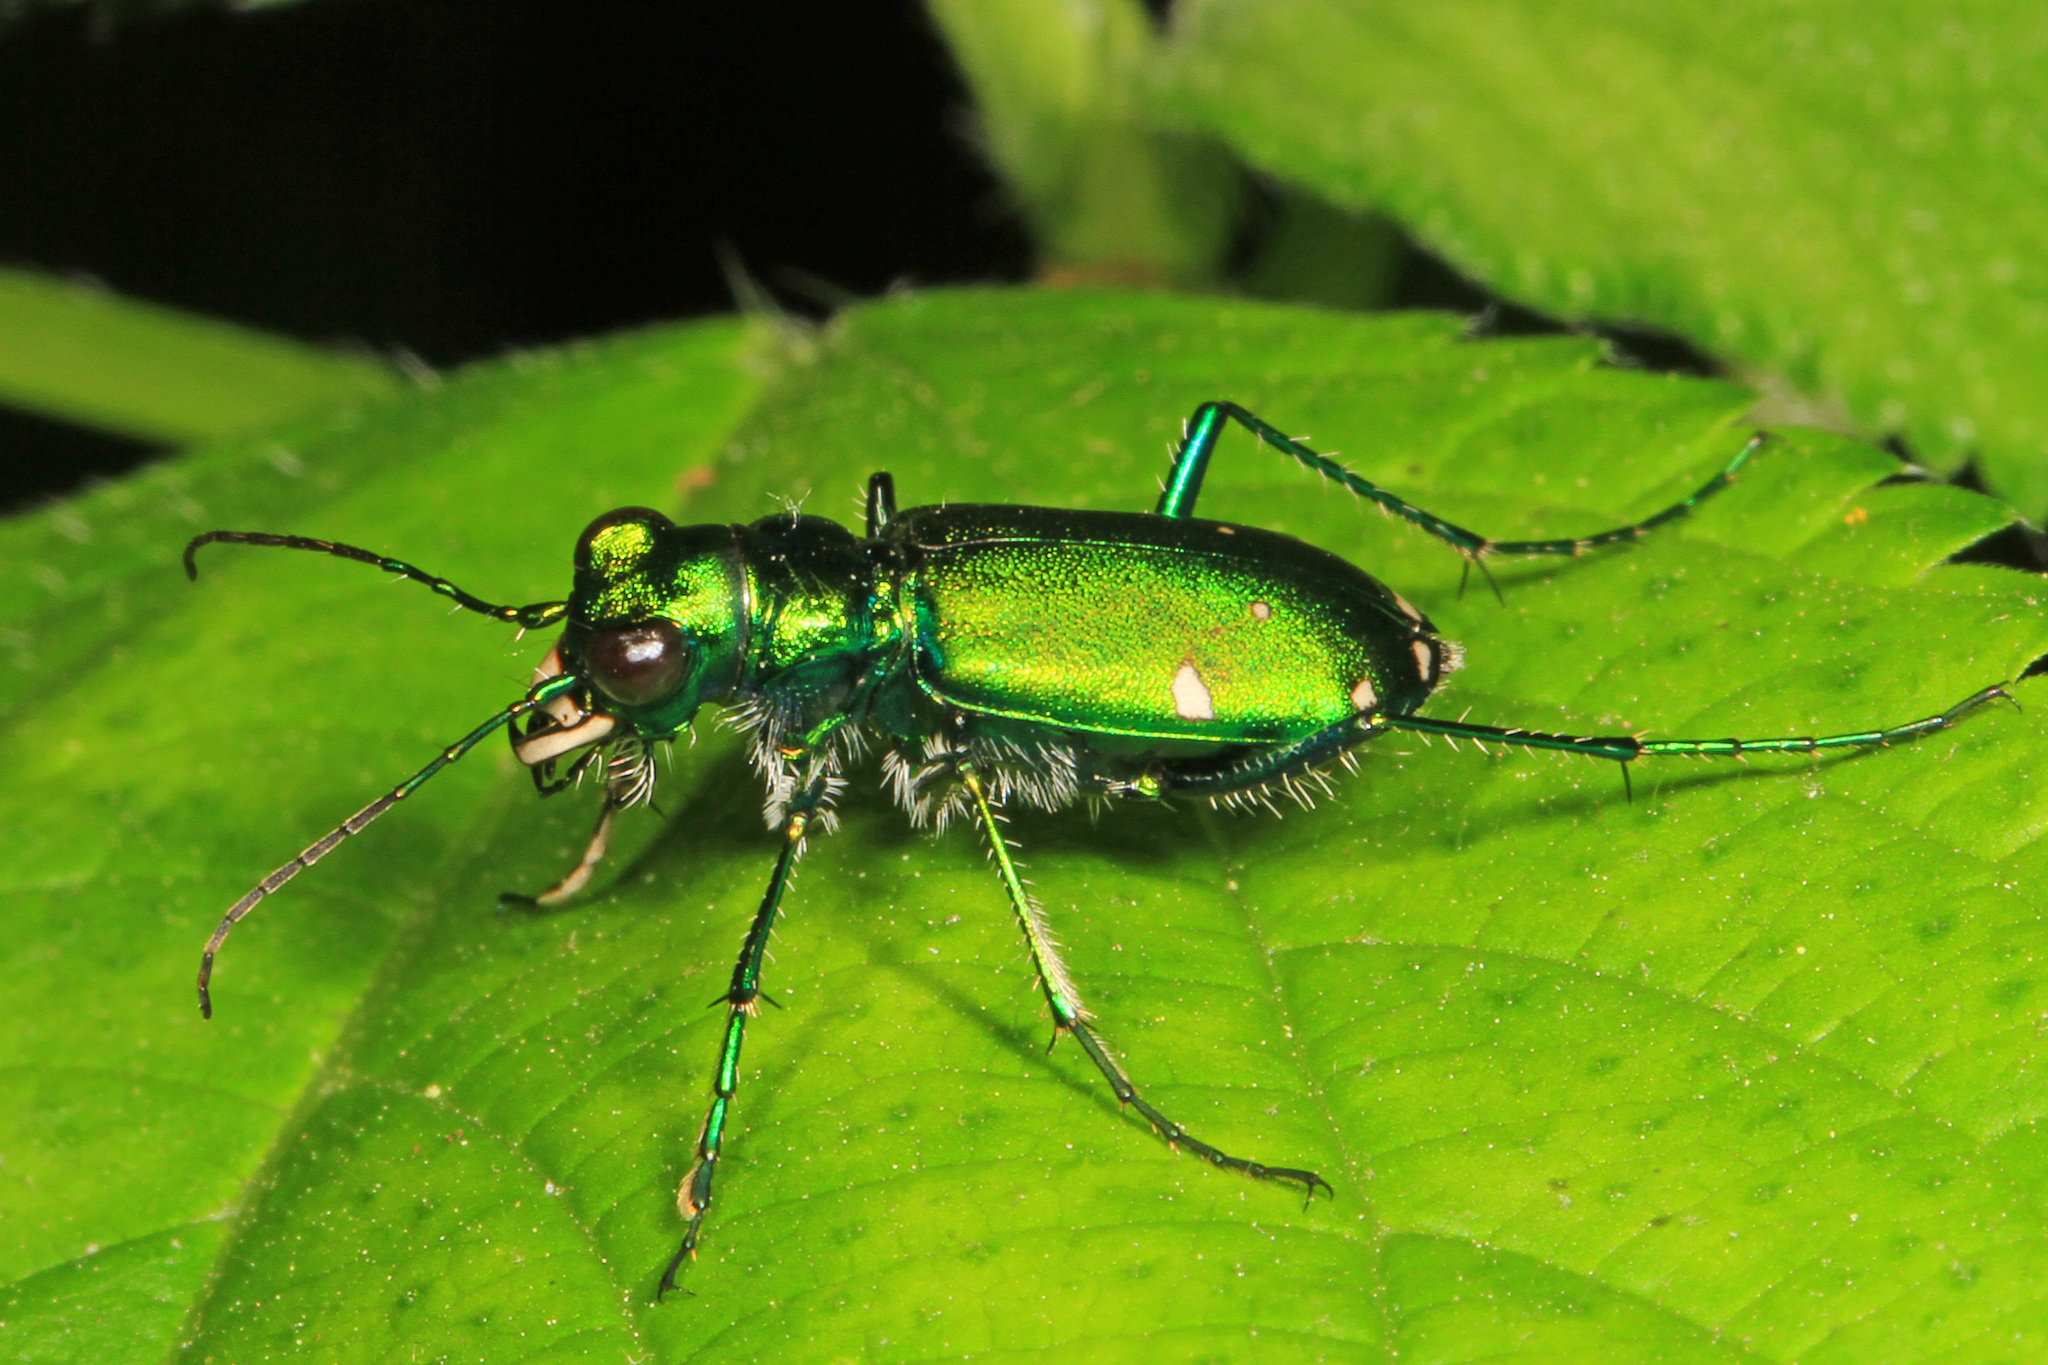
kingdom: Animalia
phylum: Arthropoda
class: Insecta
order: Coleoptera
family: Carabidae
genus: Cicindela
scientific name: Cicindela sexguttata
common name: Six-spotted tiger beetle
